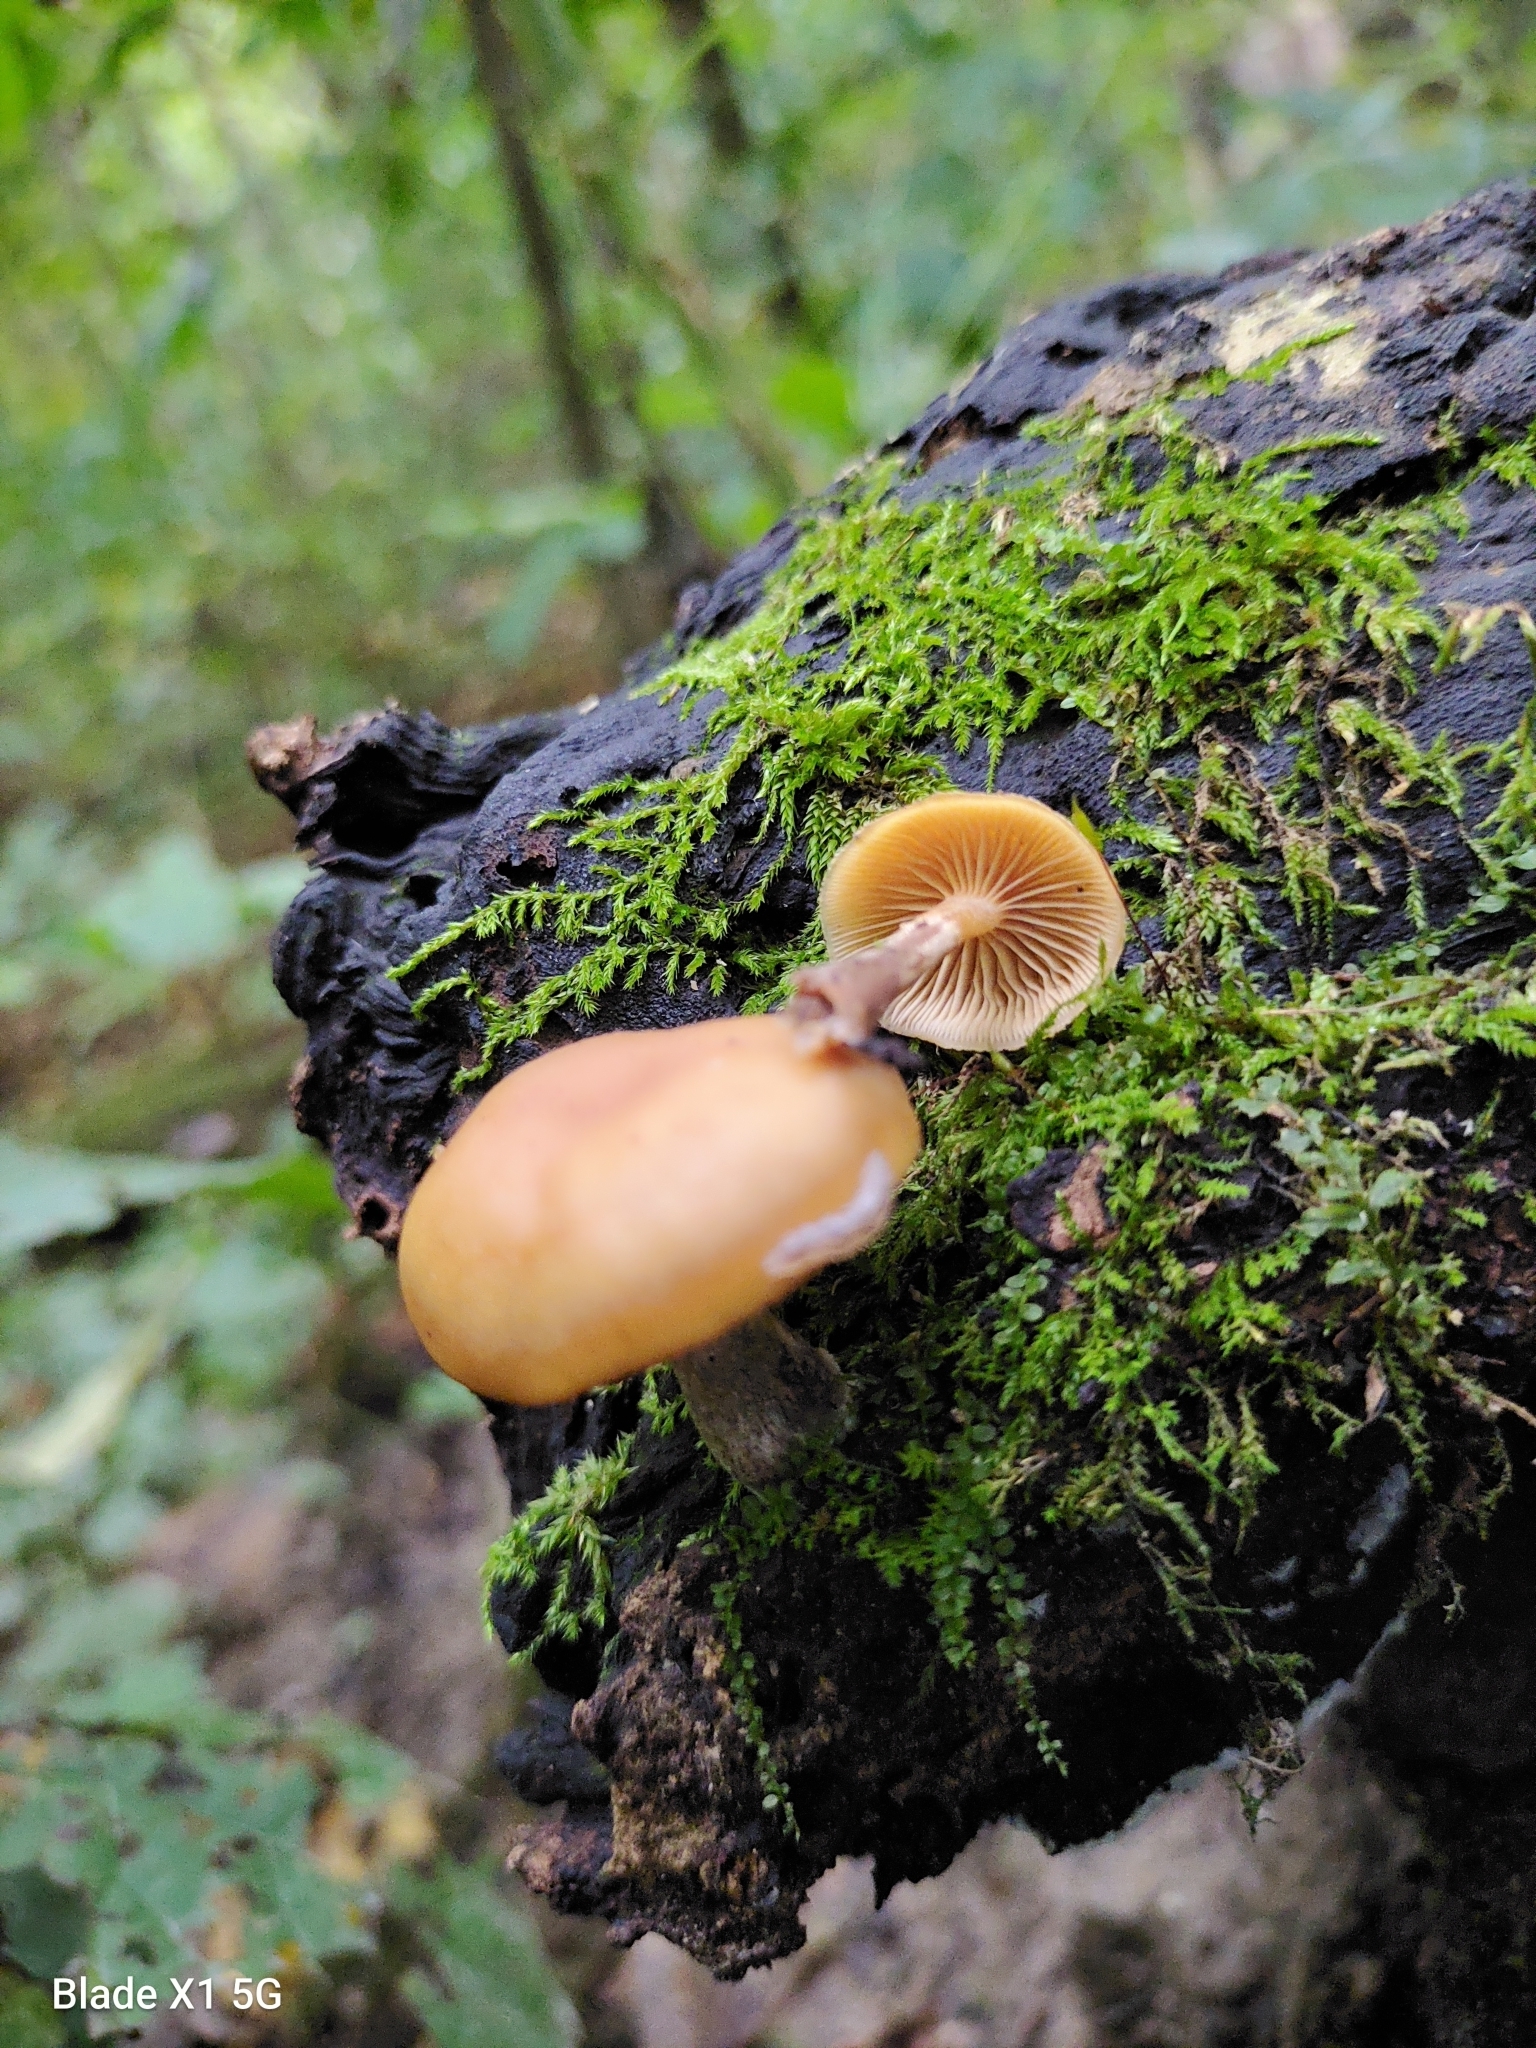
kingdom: Fungi
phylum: Basidiomycota
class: Agaricomycetes
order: Agaricales
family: Hymenogastraceae
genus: Galerina
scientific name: Galerina marginata
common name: Funeral bell
